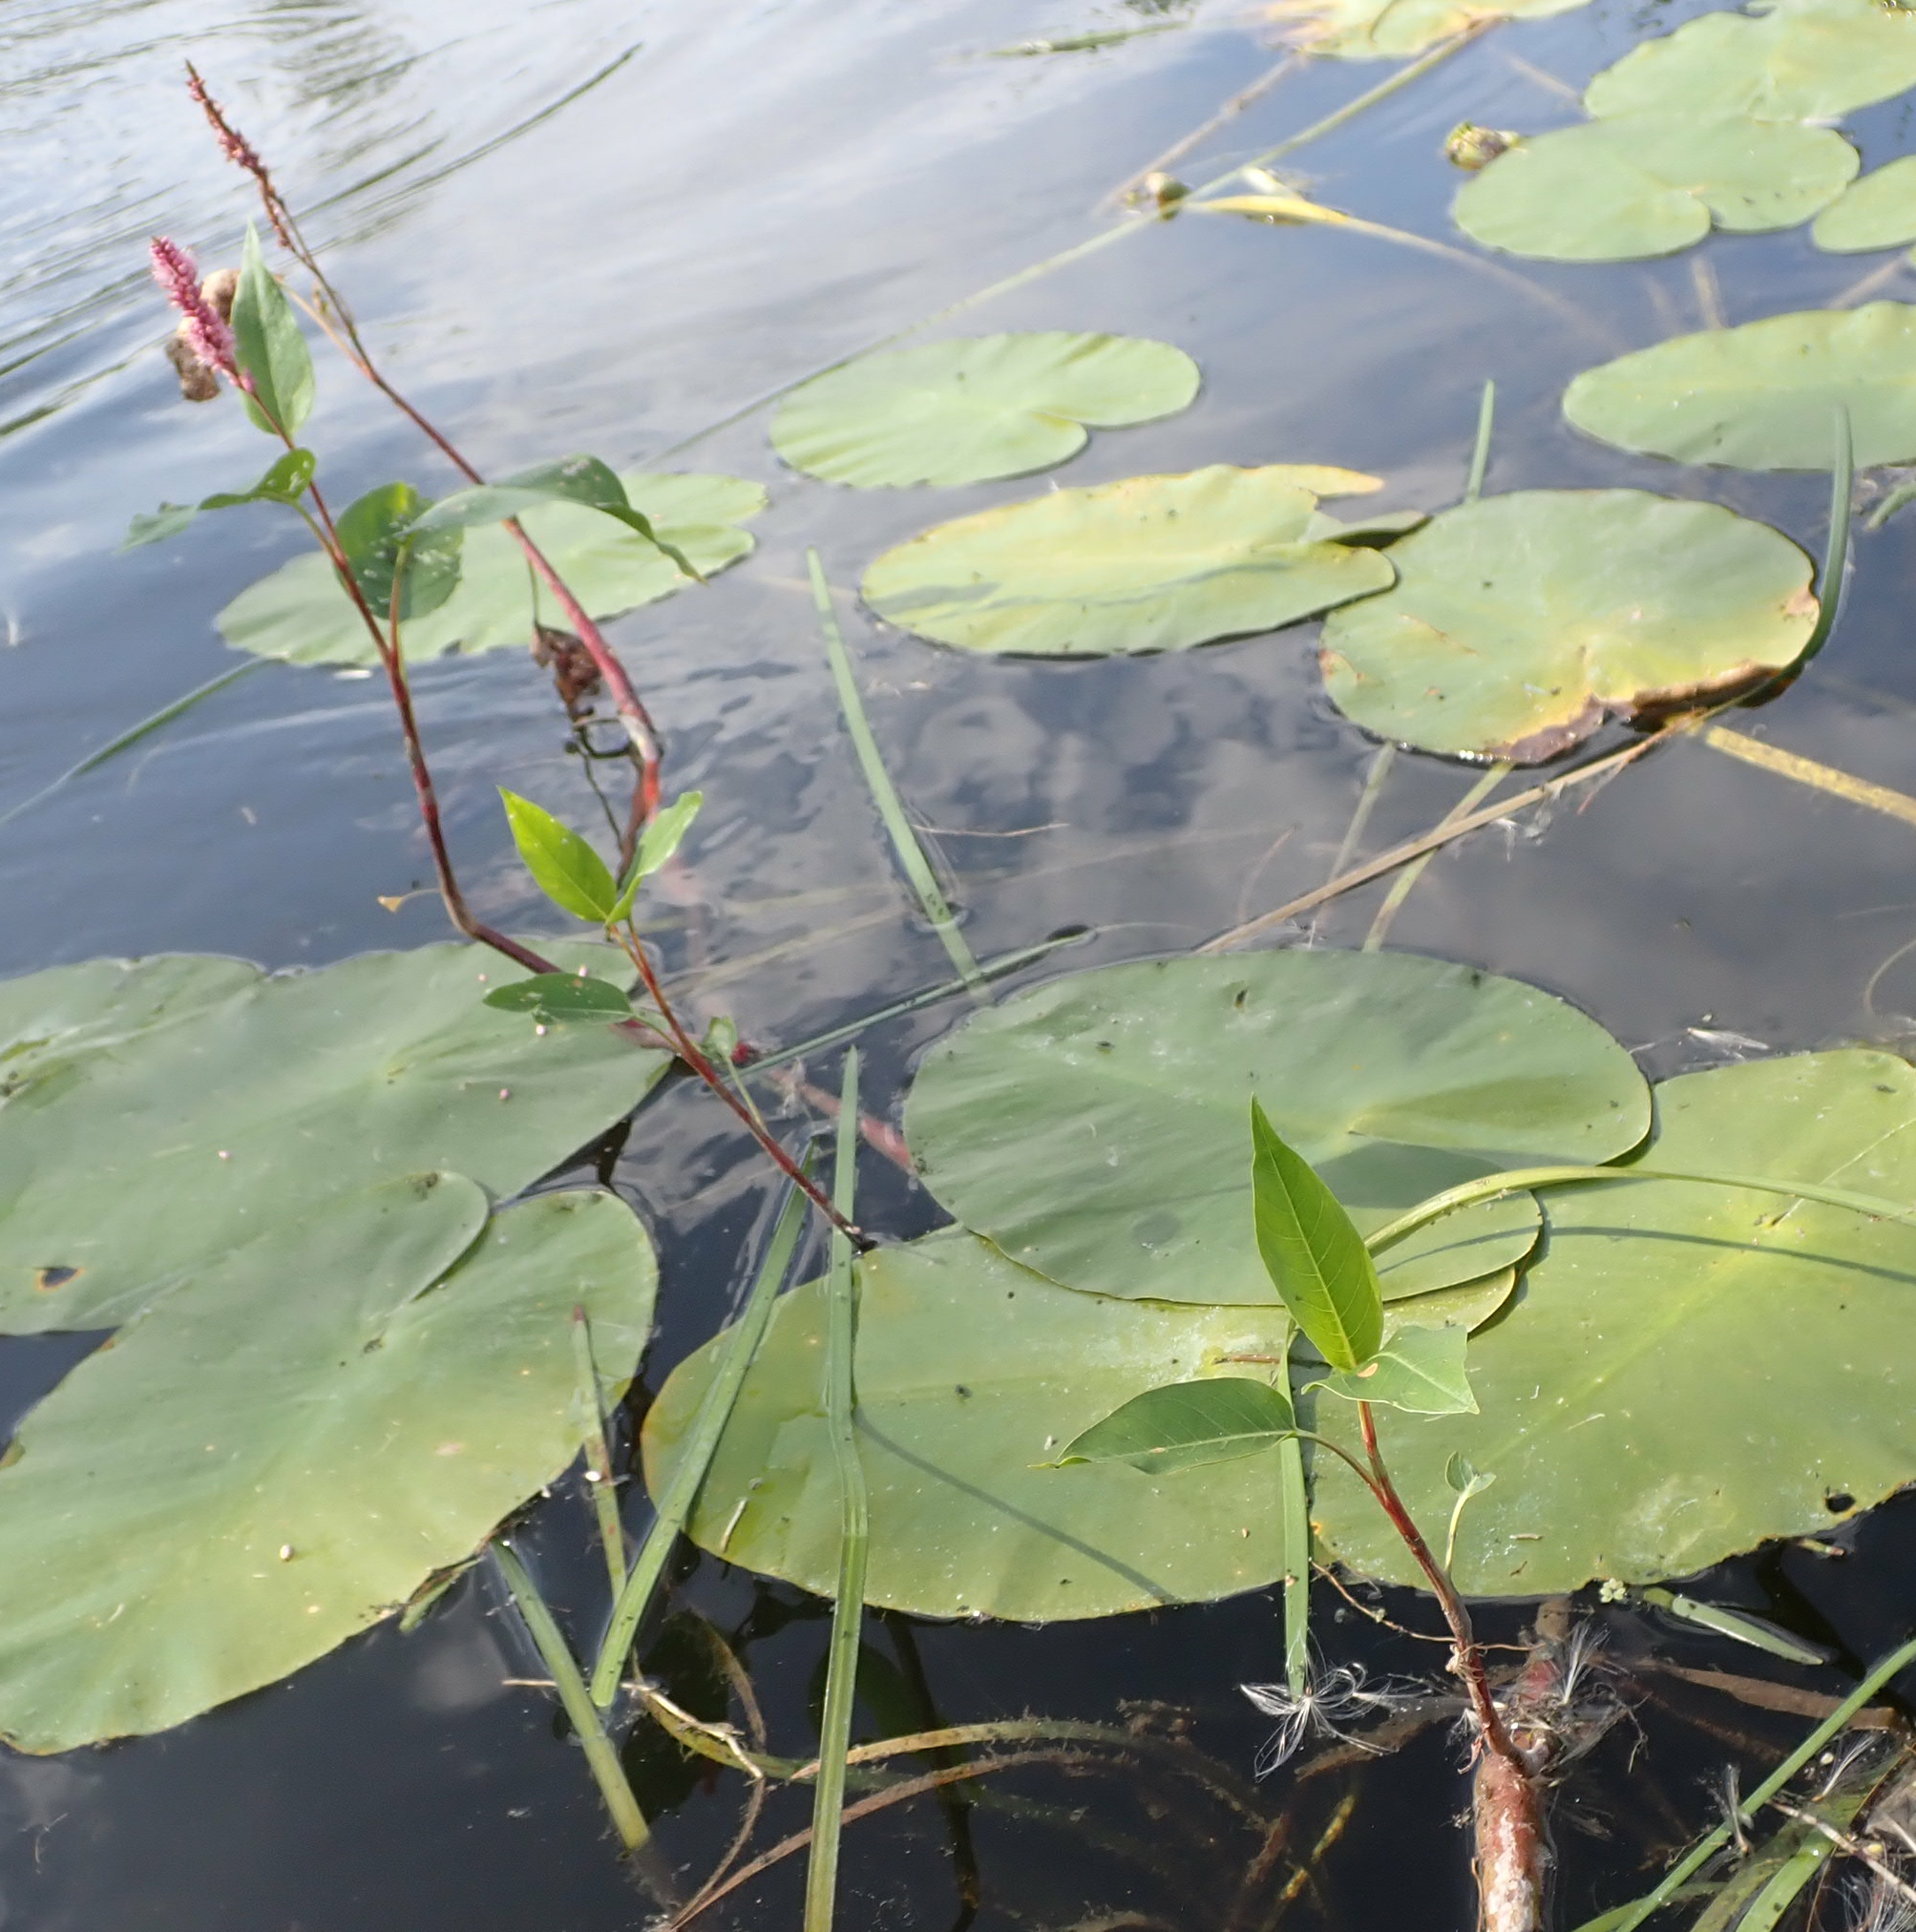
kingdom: Plantae
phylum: Tracheophyta
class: Magnoliopsida
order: Caryophyllales
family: Polygonaceae
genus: Persicaria
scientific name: Persicaria amphibia
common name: Amphibious bistort
